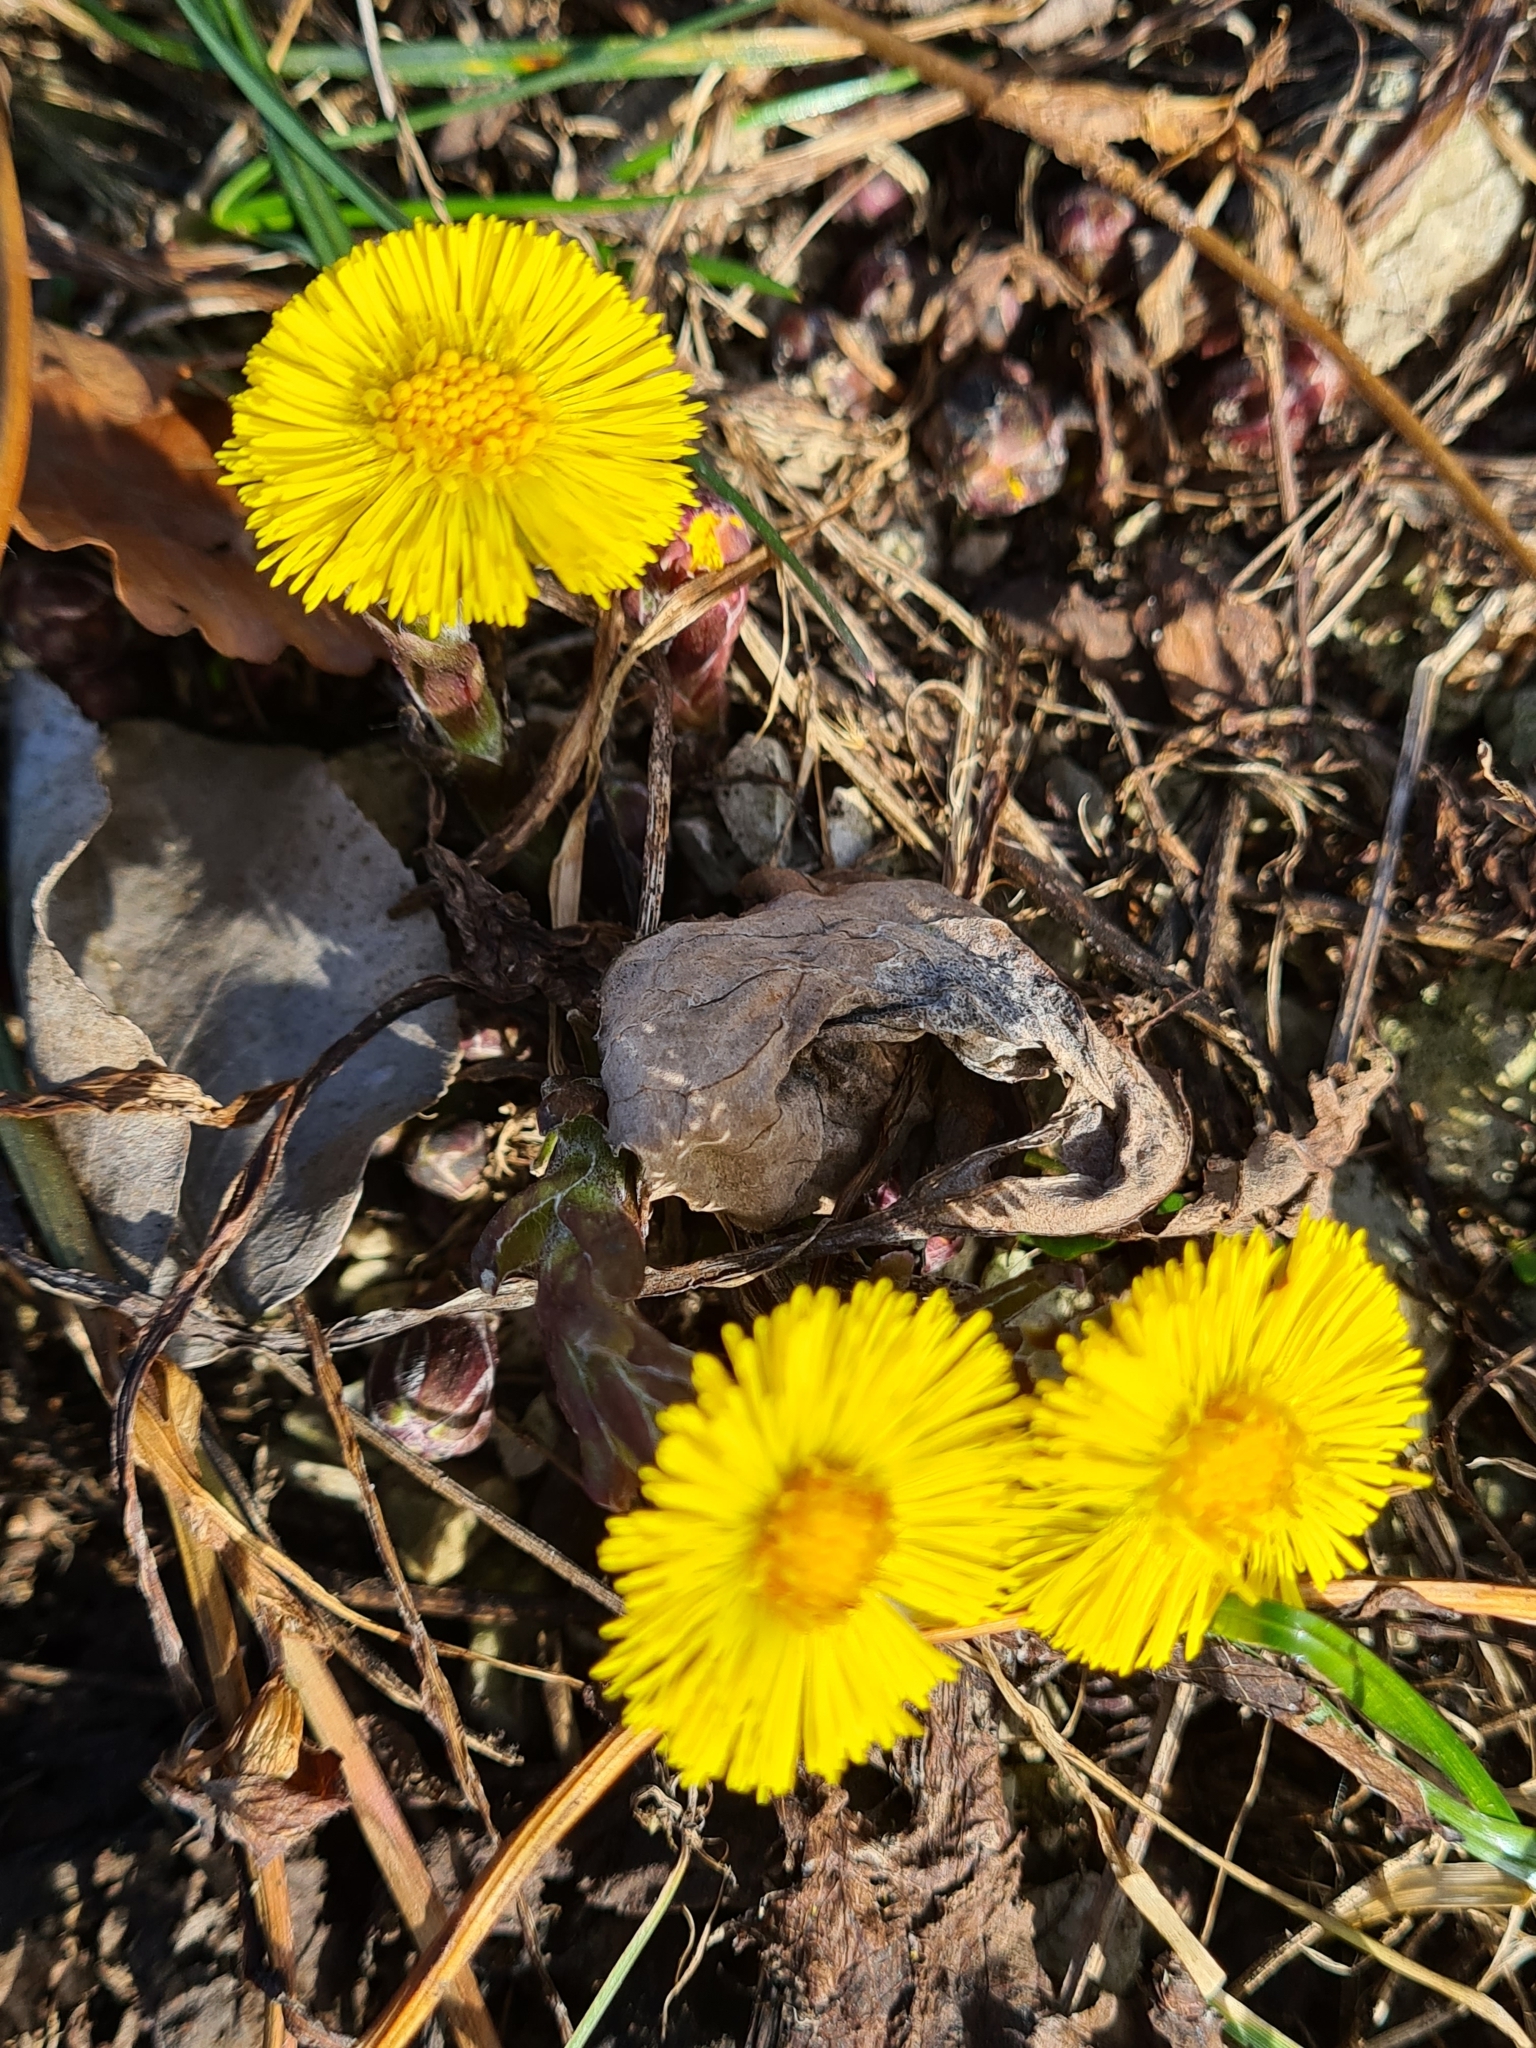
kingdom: Plantae
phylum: Tracheophyta
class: Magnoliopsida
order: Asterales
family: Asteraceae
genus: Tussilago
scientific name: Tussilago farfara
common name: Coltsfoot
